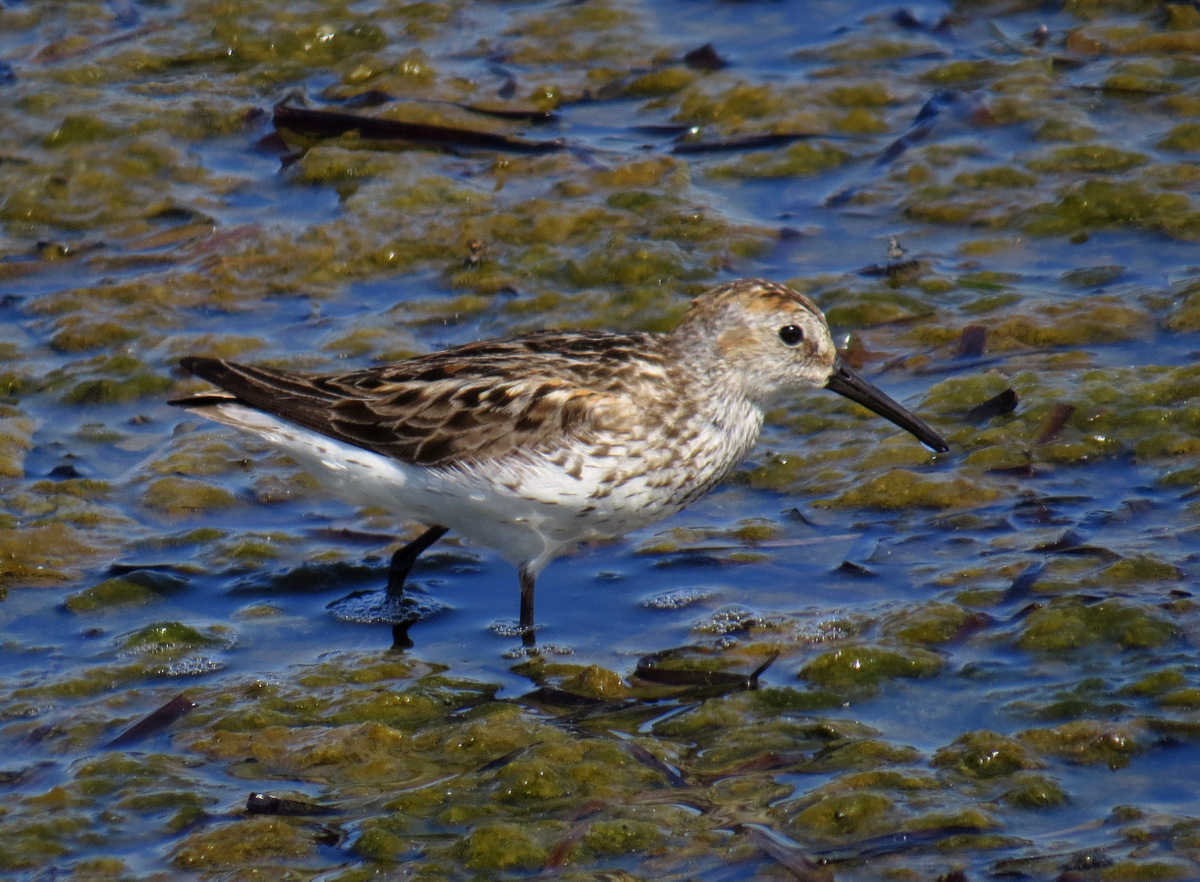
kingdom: Animalia
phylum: Chordata
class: Aves
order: Charadriiformes
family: Scolopacidae
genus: Calidris
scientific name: Calidris mauri
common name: Western sandpiper
